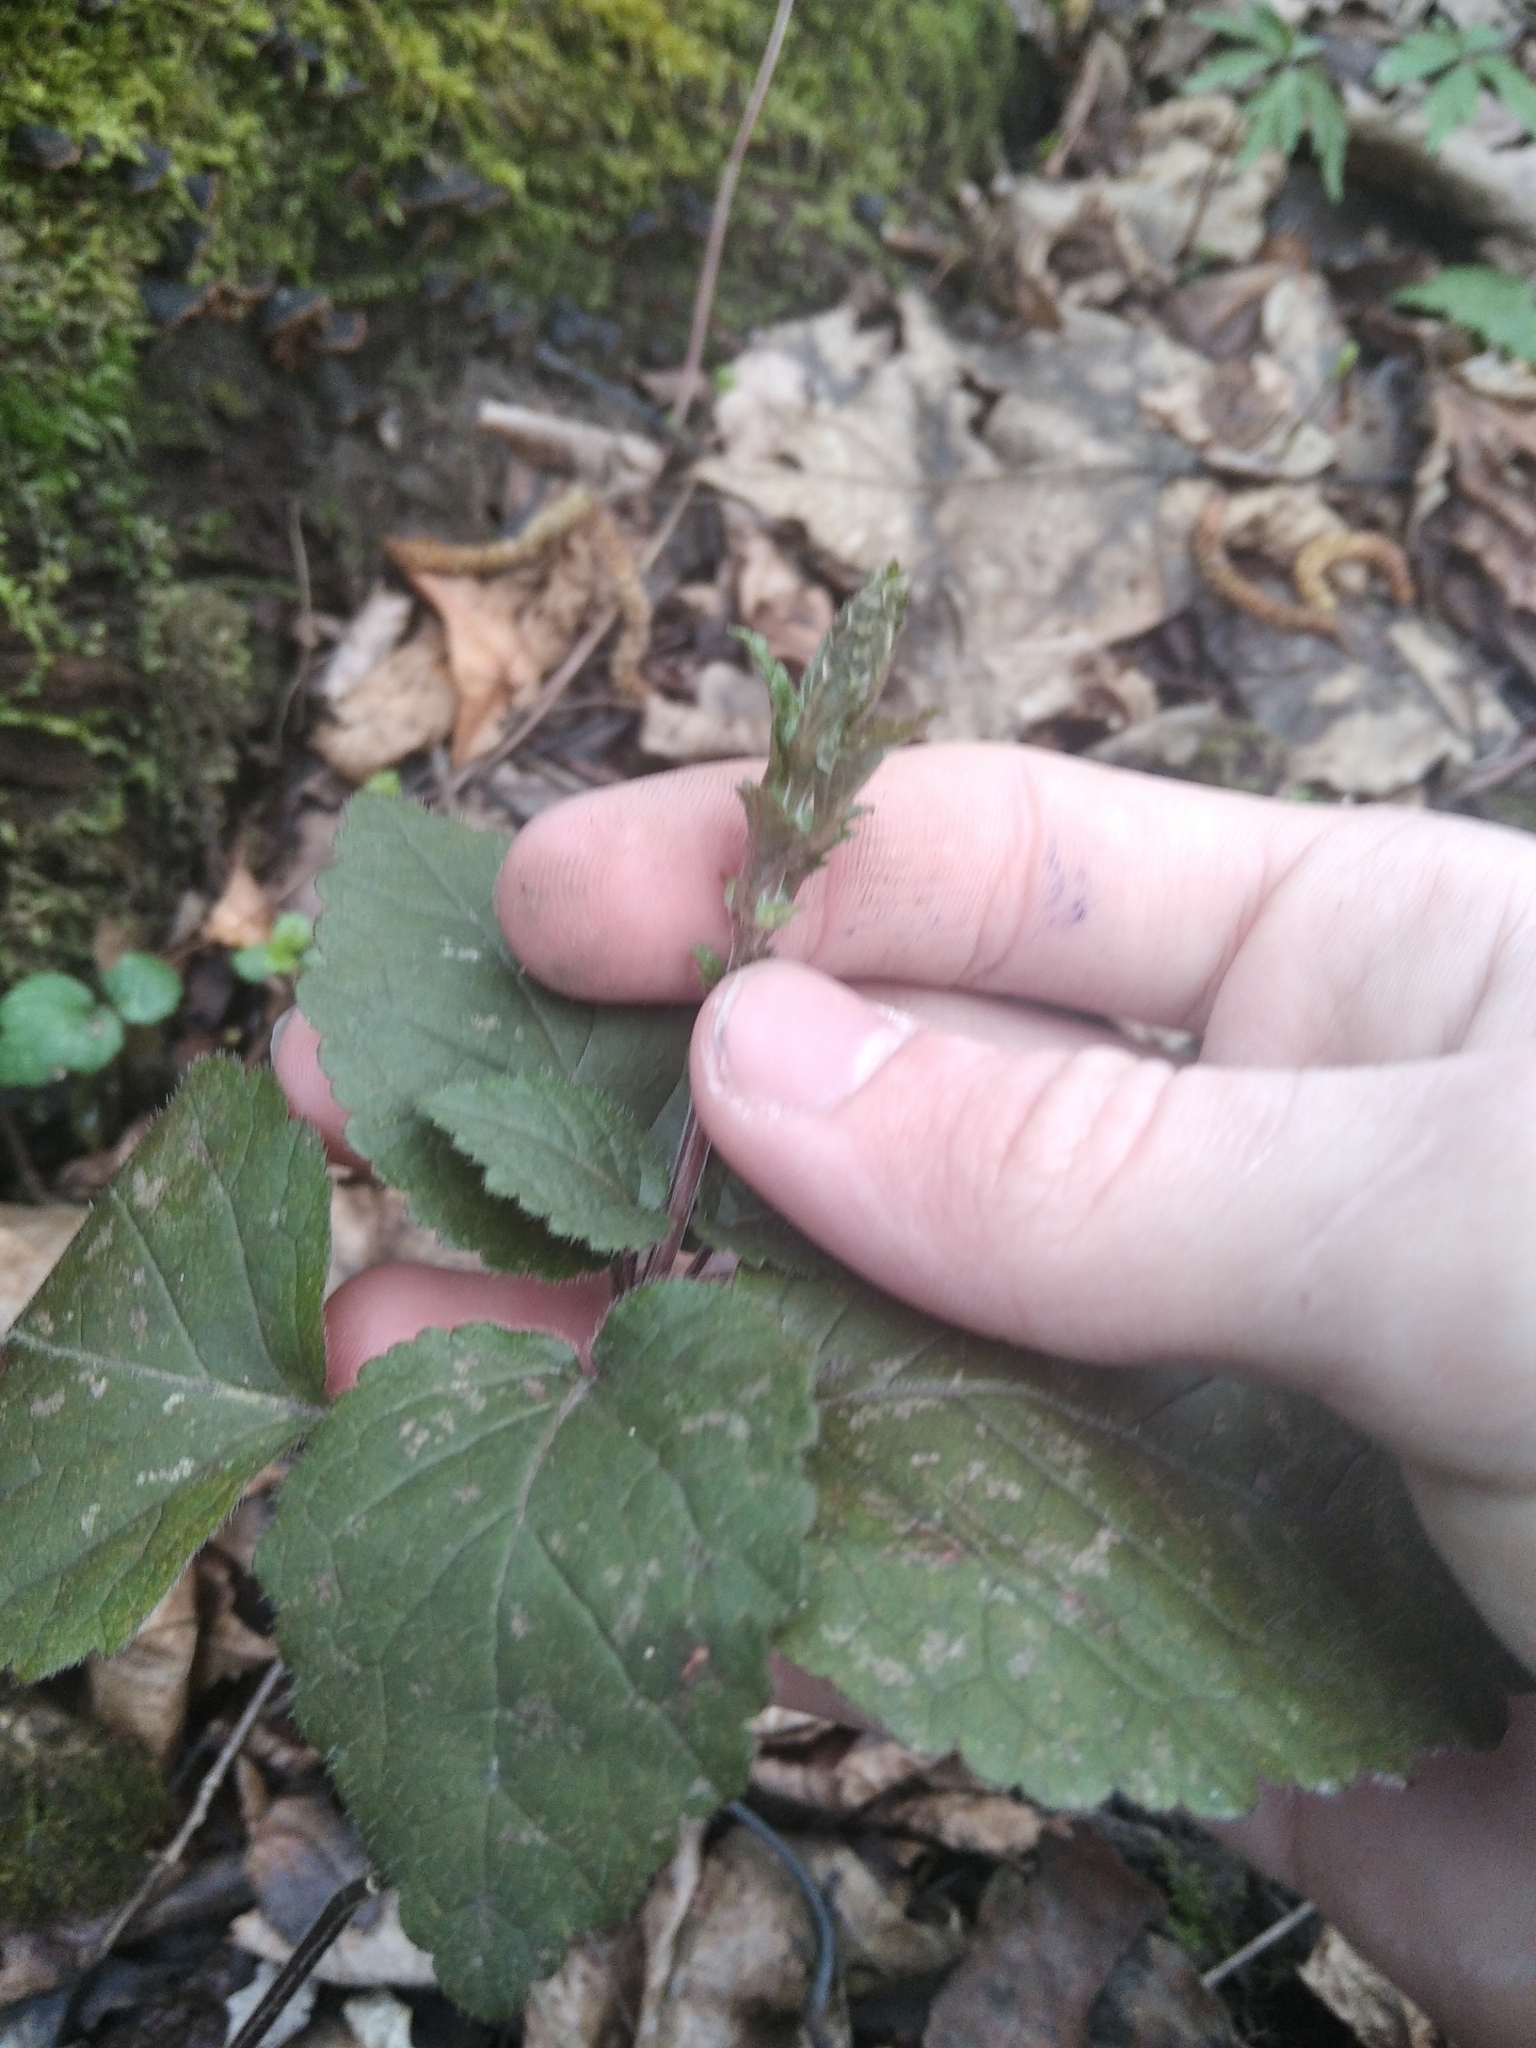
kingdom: Plantae
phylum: Tracheophyta
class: Magnoliopsida
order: Lamiales
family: Lamiaceae
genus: Lamium
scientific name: Lamium galeobdolon
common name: Yellow archangel
